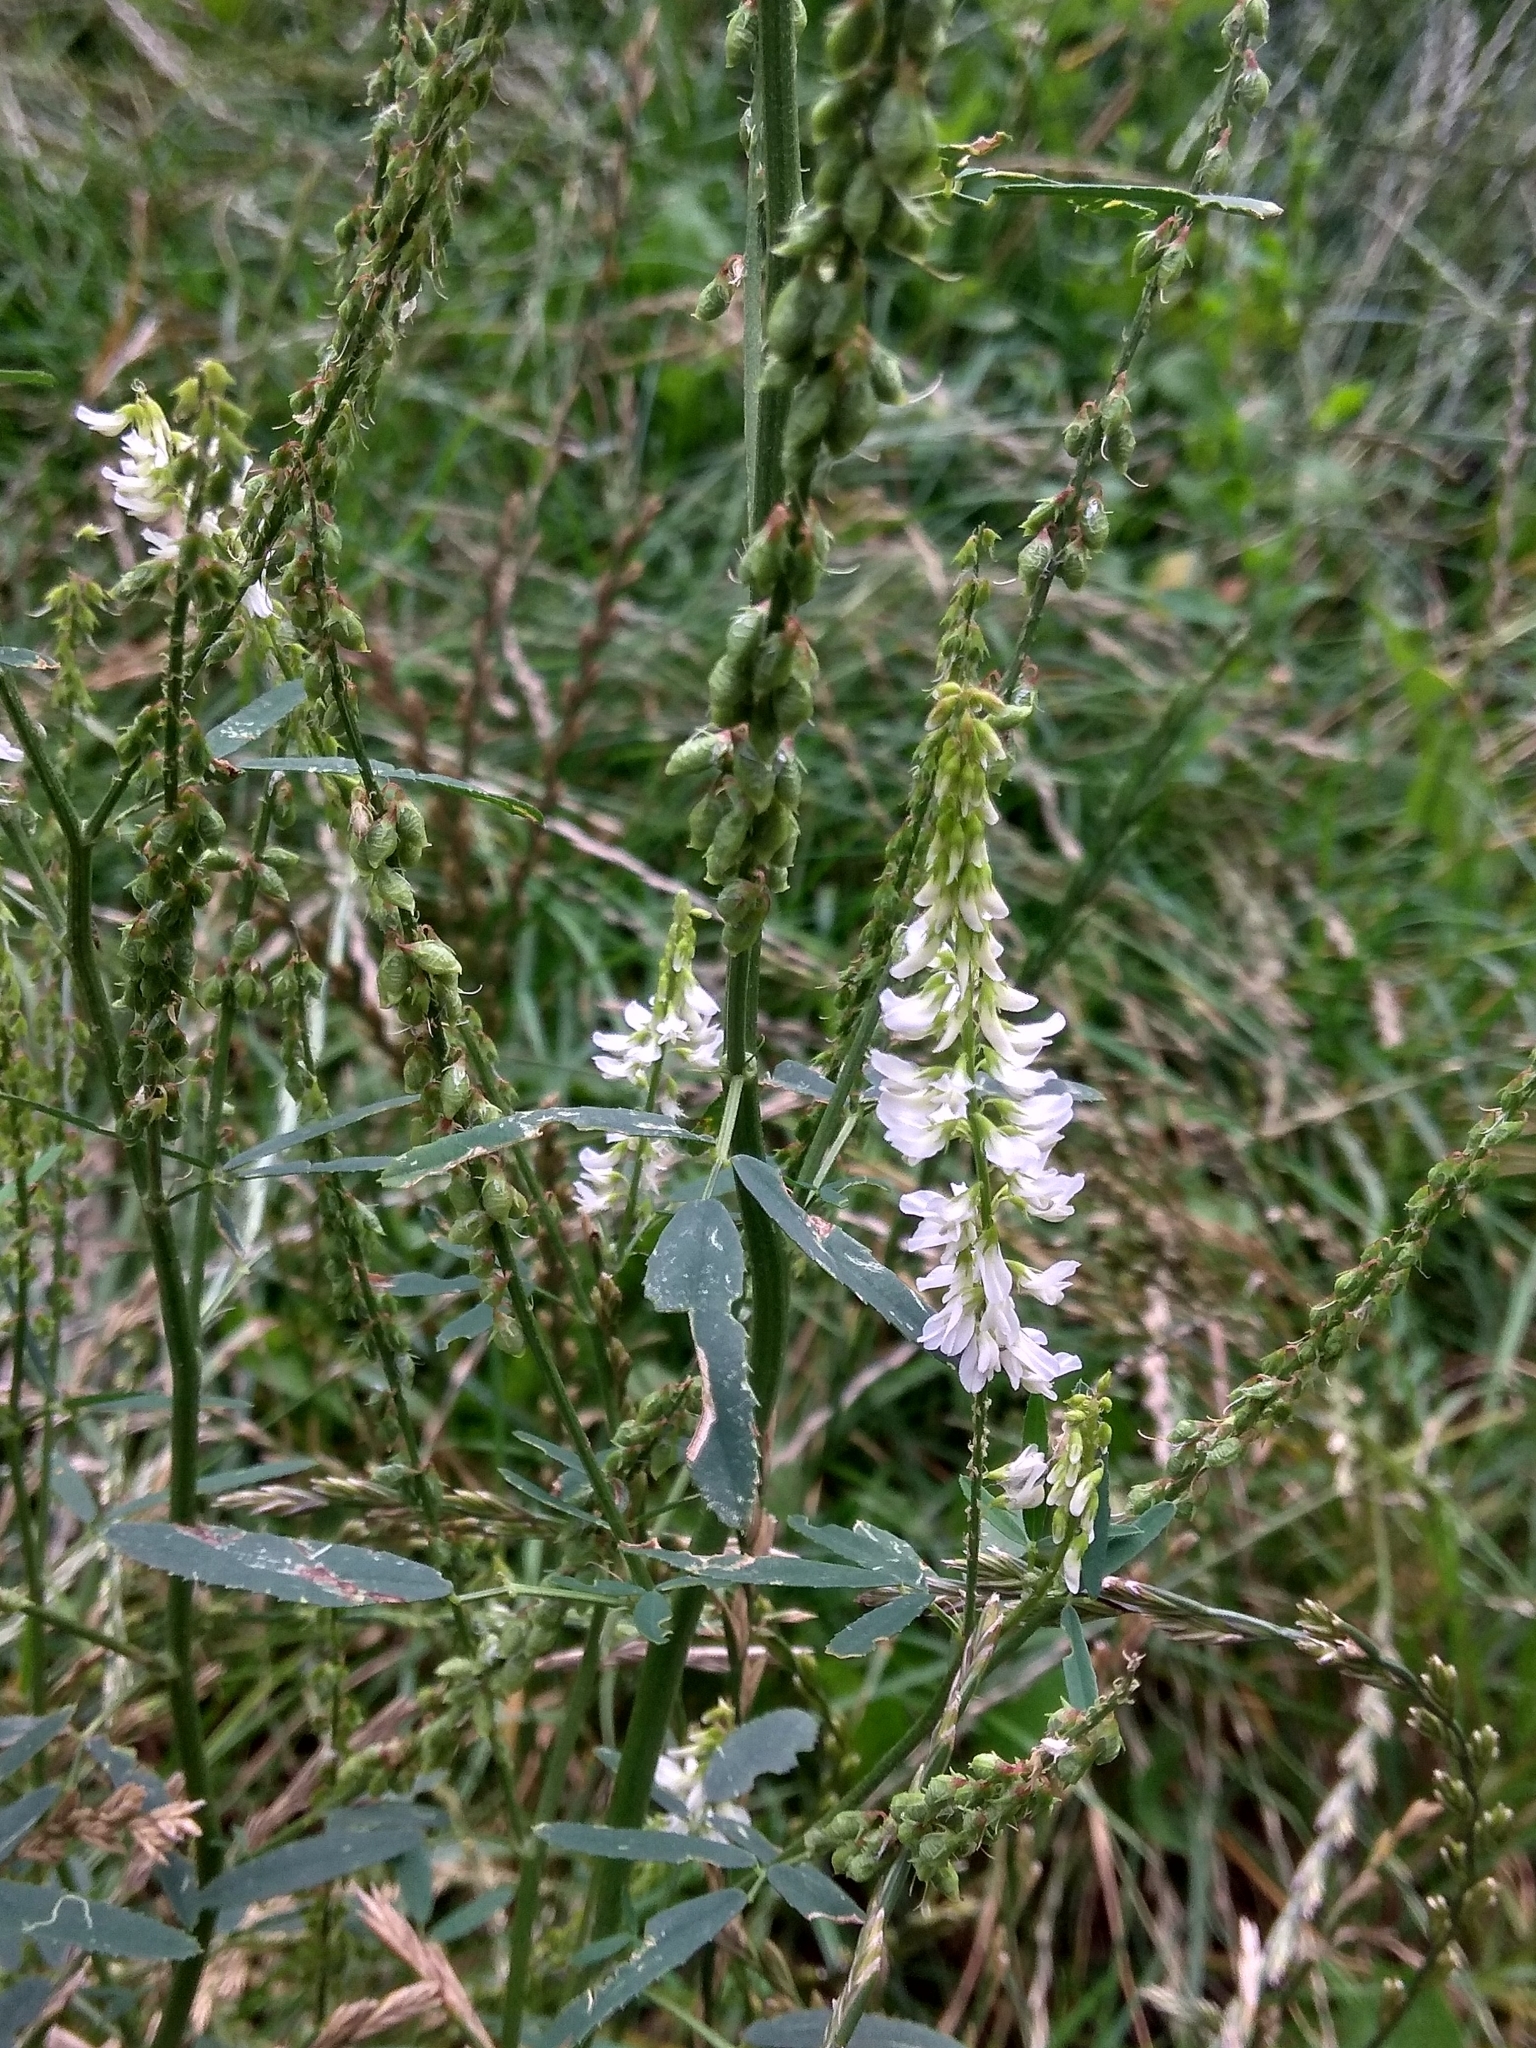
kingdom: Plantae
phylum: Tracheophyta
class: Magnoliopsida
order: Fabales
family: Fabaceae
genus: Melilotus
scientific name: Melilotus albus
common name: White melilot
